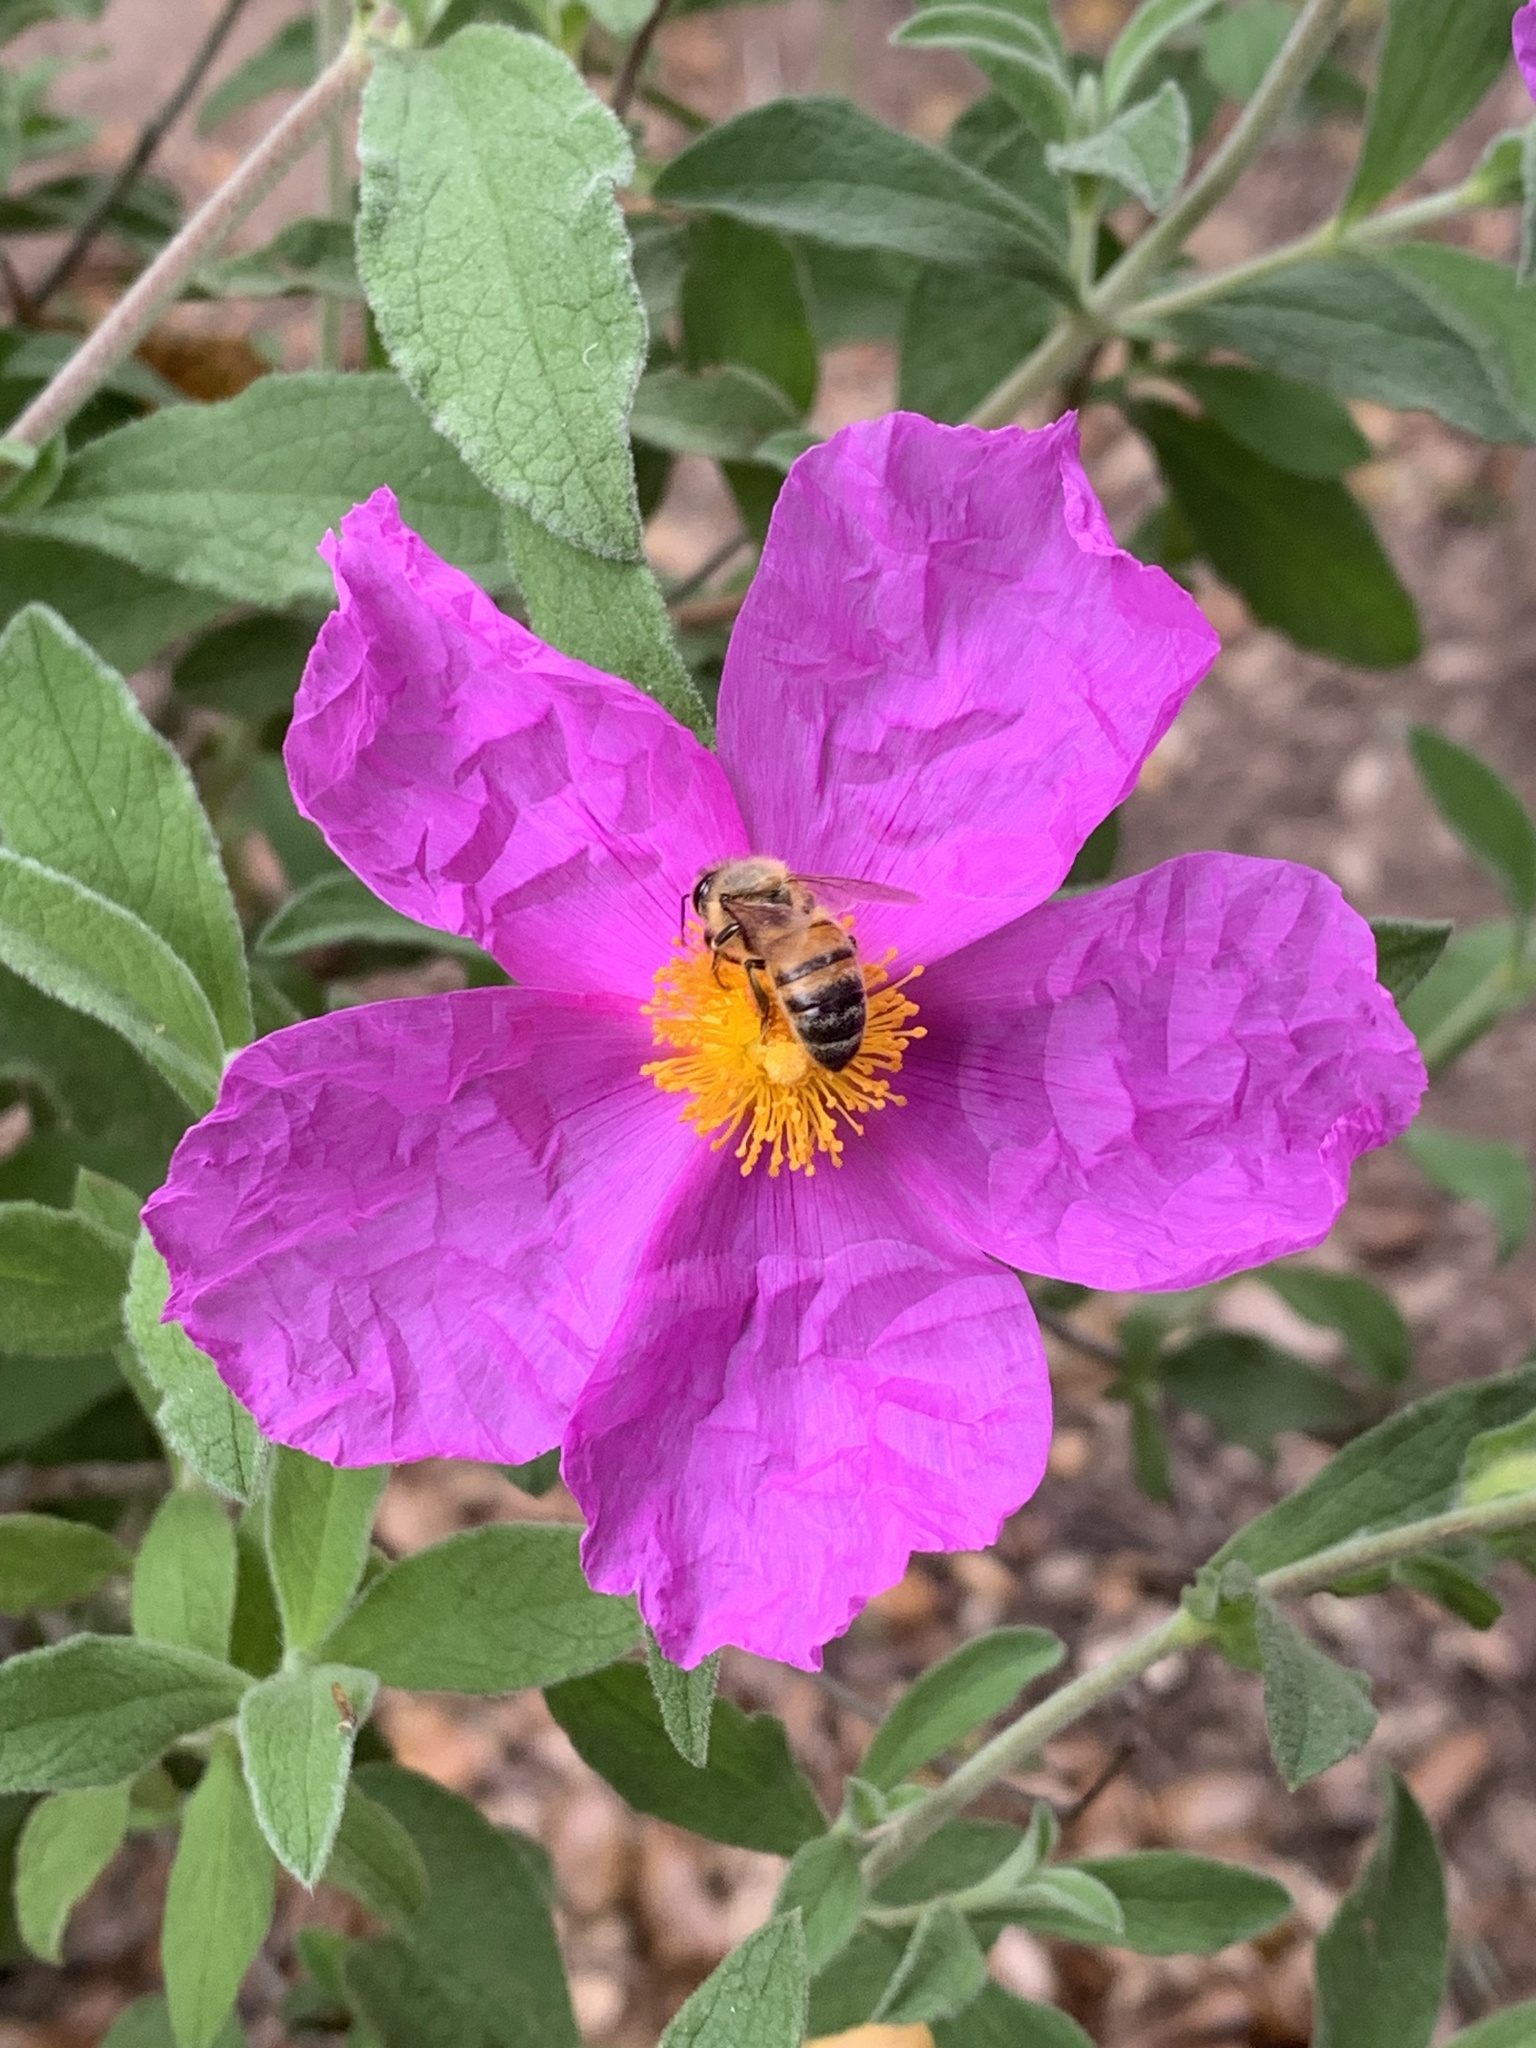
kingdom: Animalia
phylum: Arthropoda
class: Insecta
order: Hymenoptera
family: Apidae
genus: Apis
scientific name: Apis mellifera
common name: Honey bee
